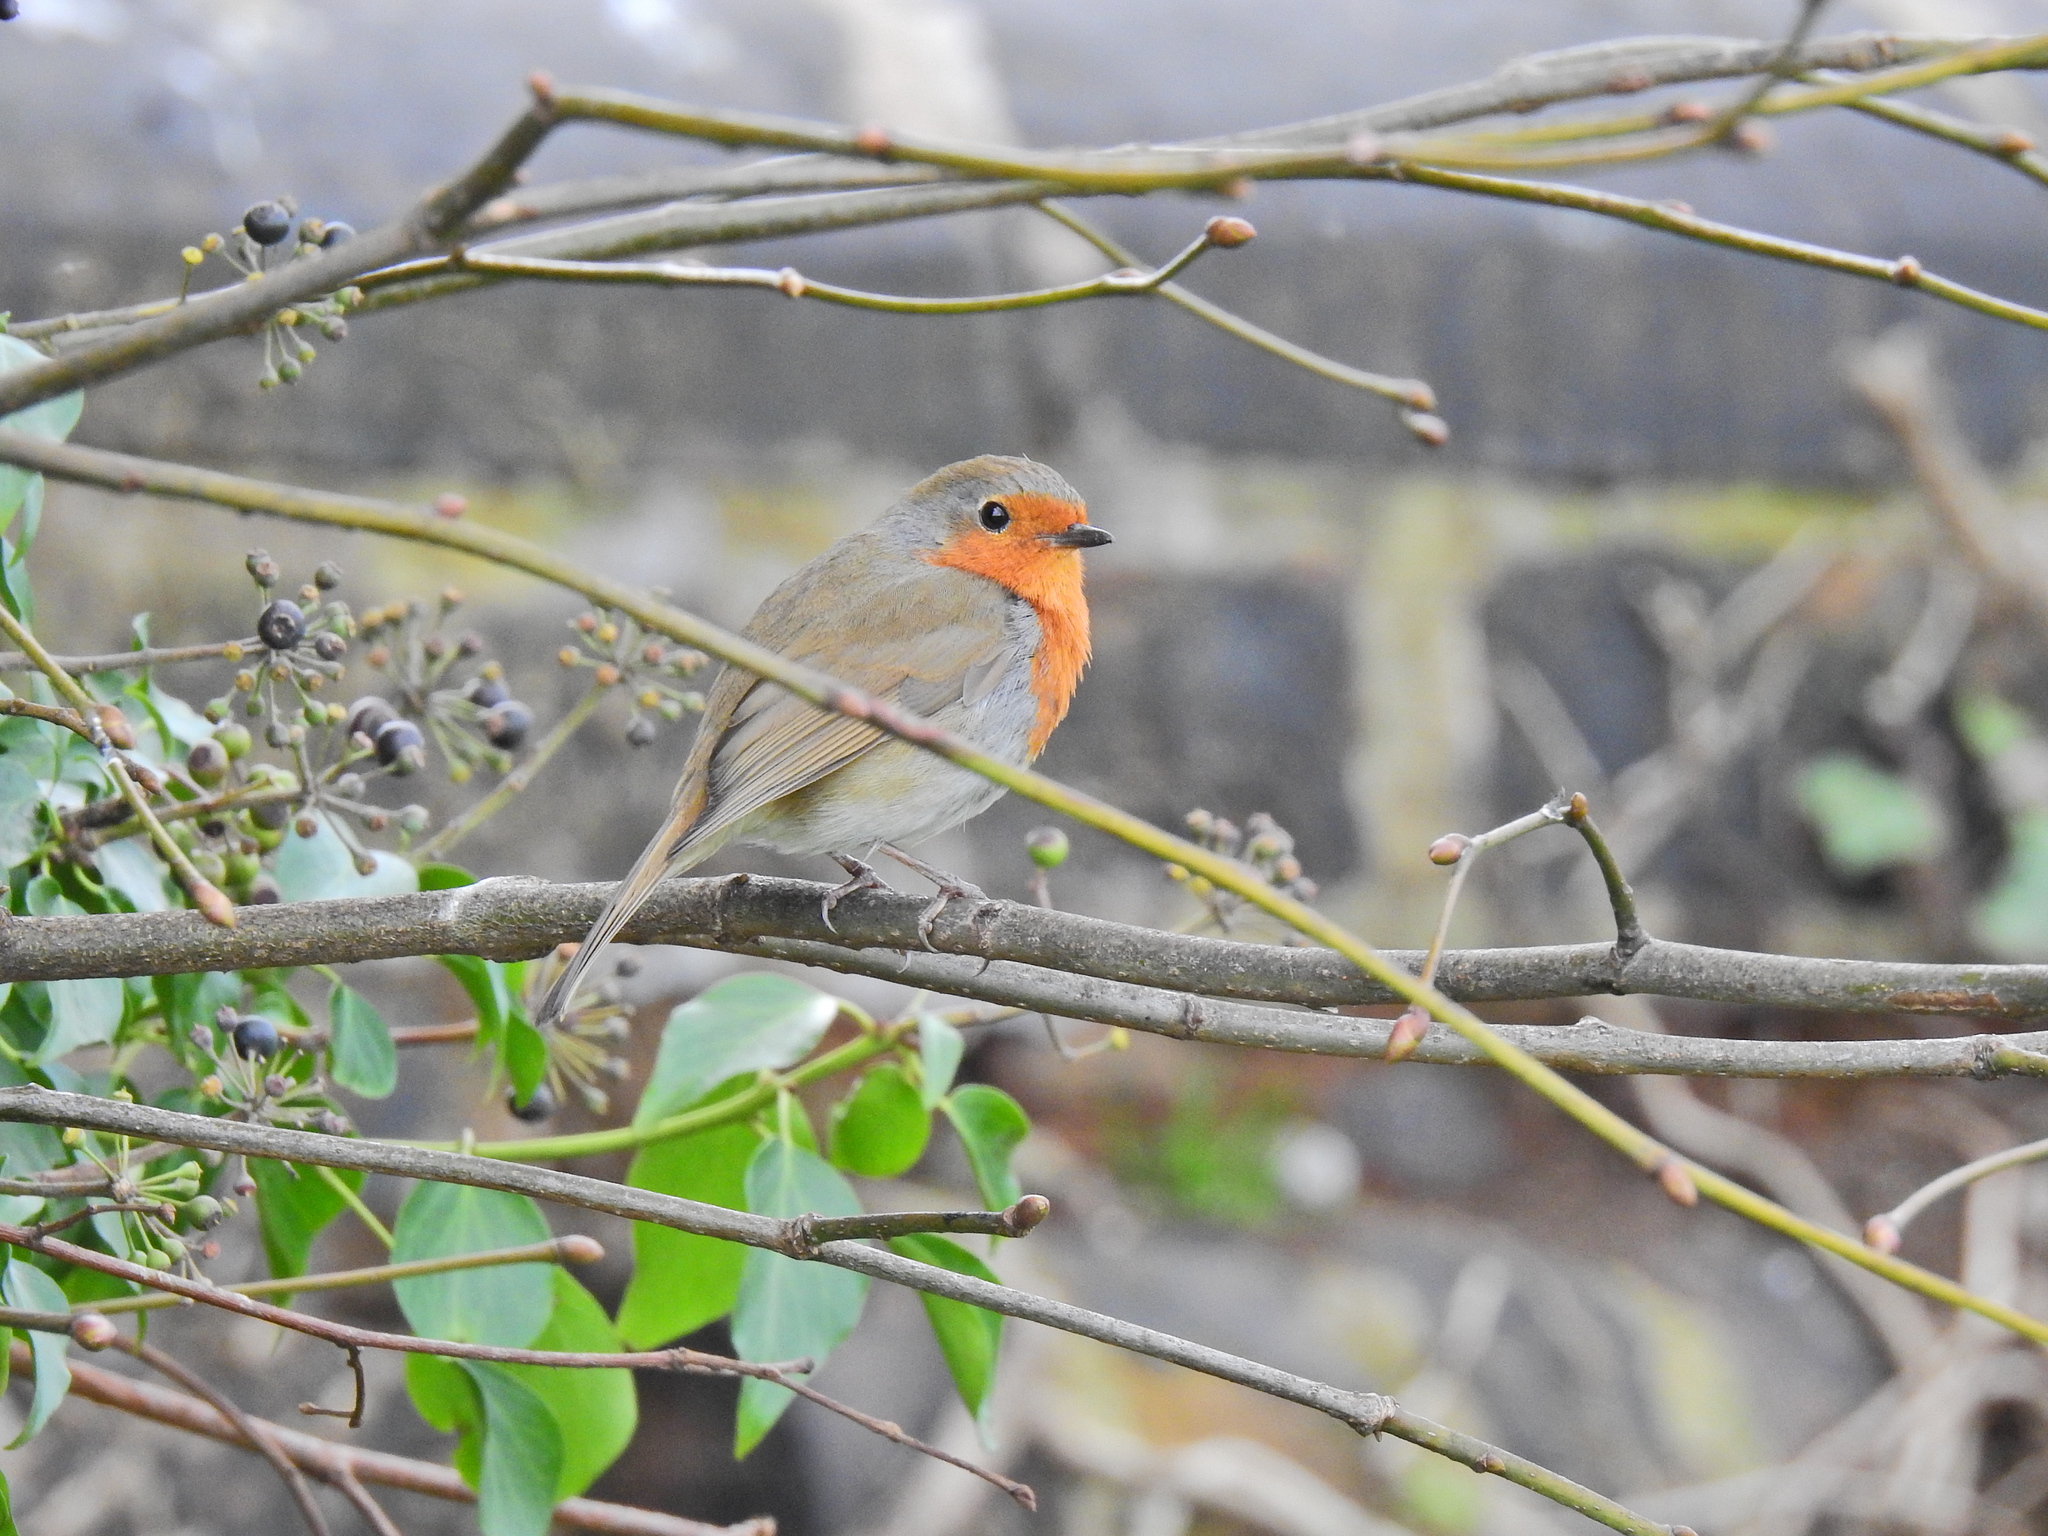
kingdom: Animalia
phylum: Chordata
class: Aves
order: Passeriformes
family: Muscicapidae
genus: Erithacus
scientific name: Erithacus rubecula
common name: European robin
